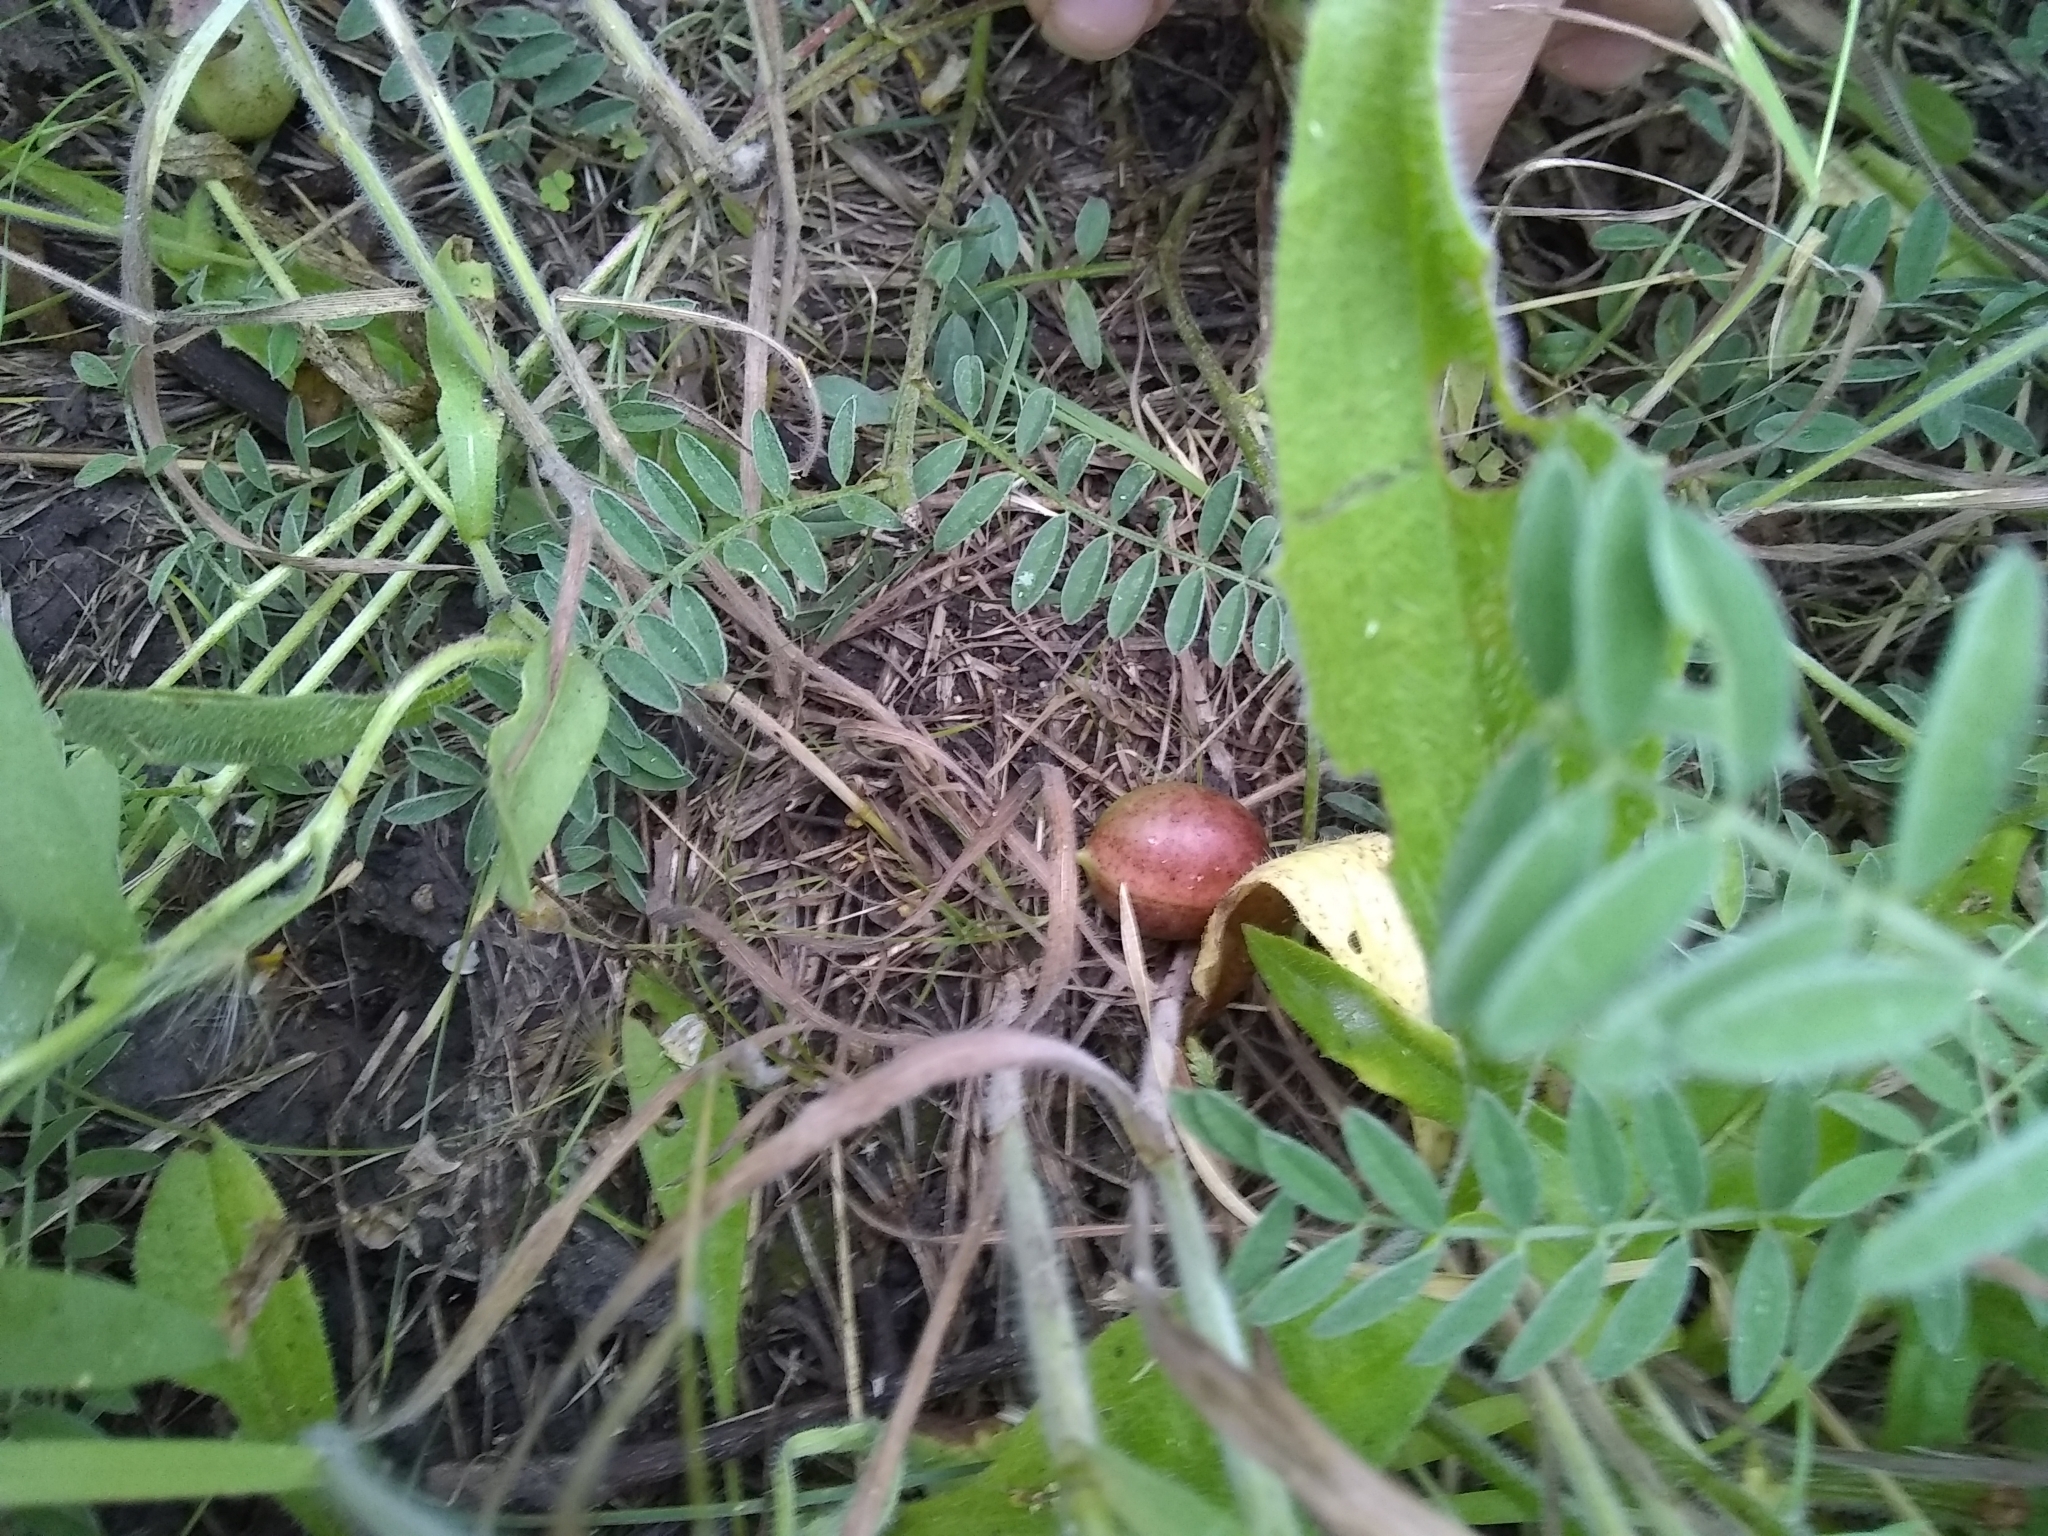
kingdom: Plantae
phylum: Tracheophyta
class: Magnoliopsida
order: Fabales
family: Fabaceae
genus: Astragalus
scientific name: Astragalus crassicarpus
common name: Ground-plum milk-vetch
